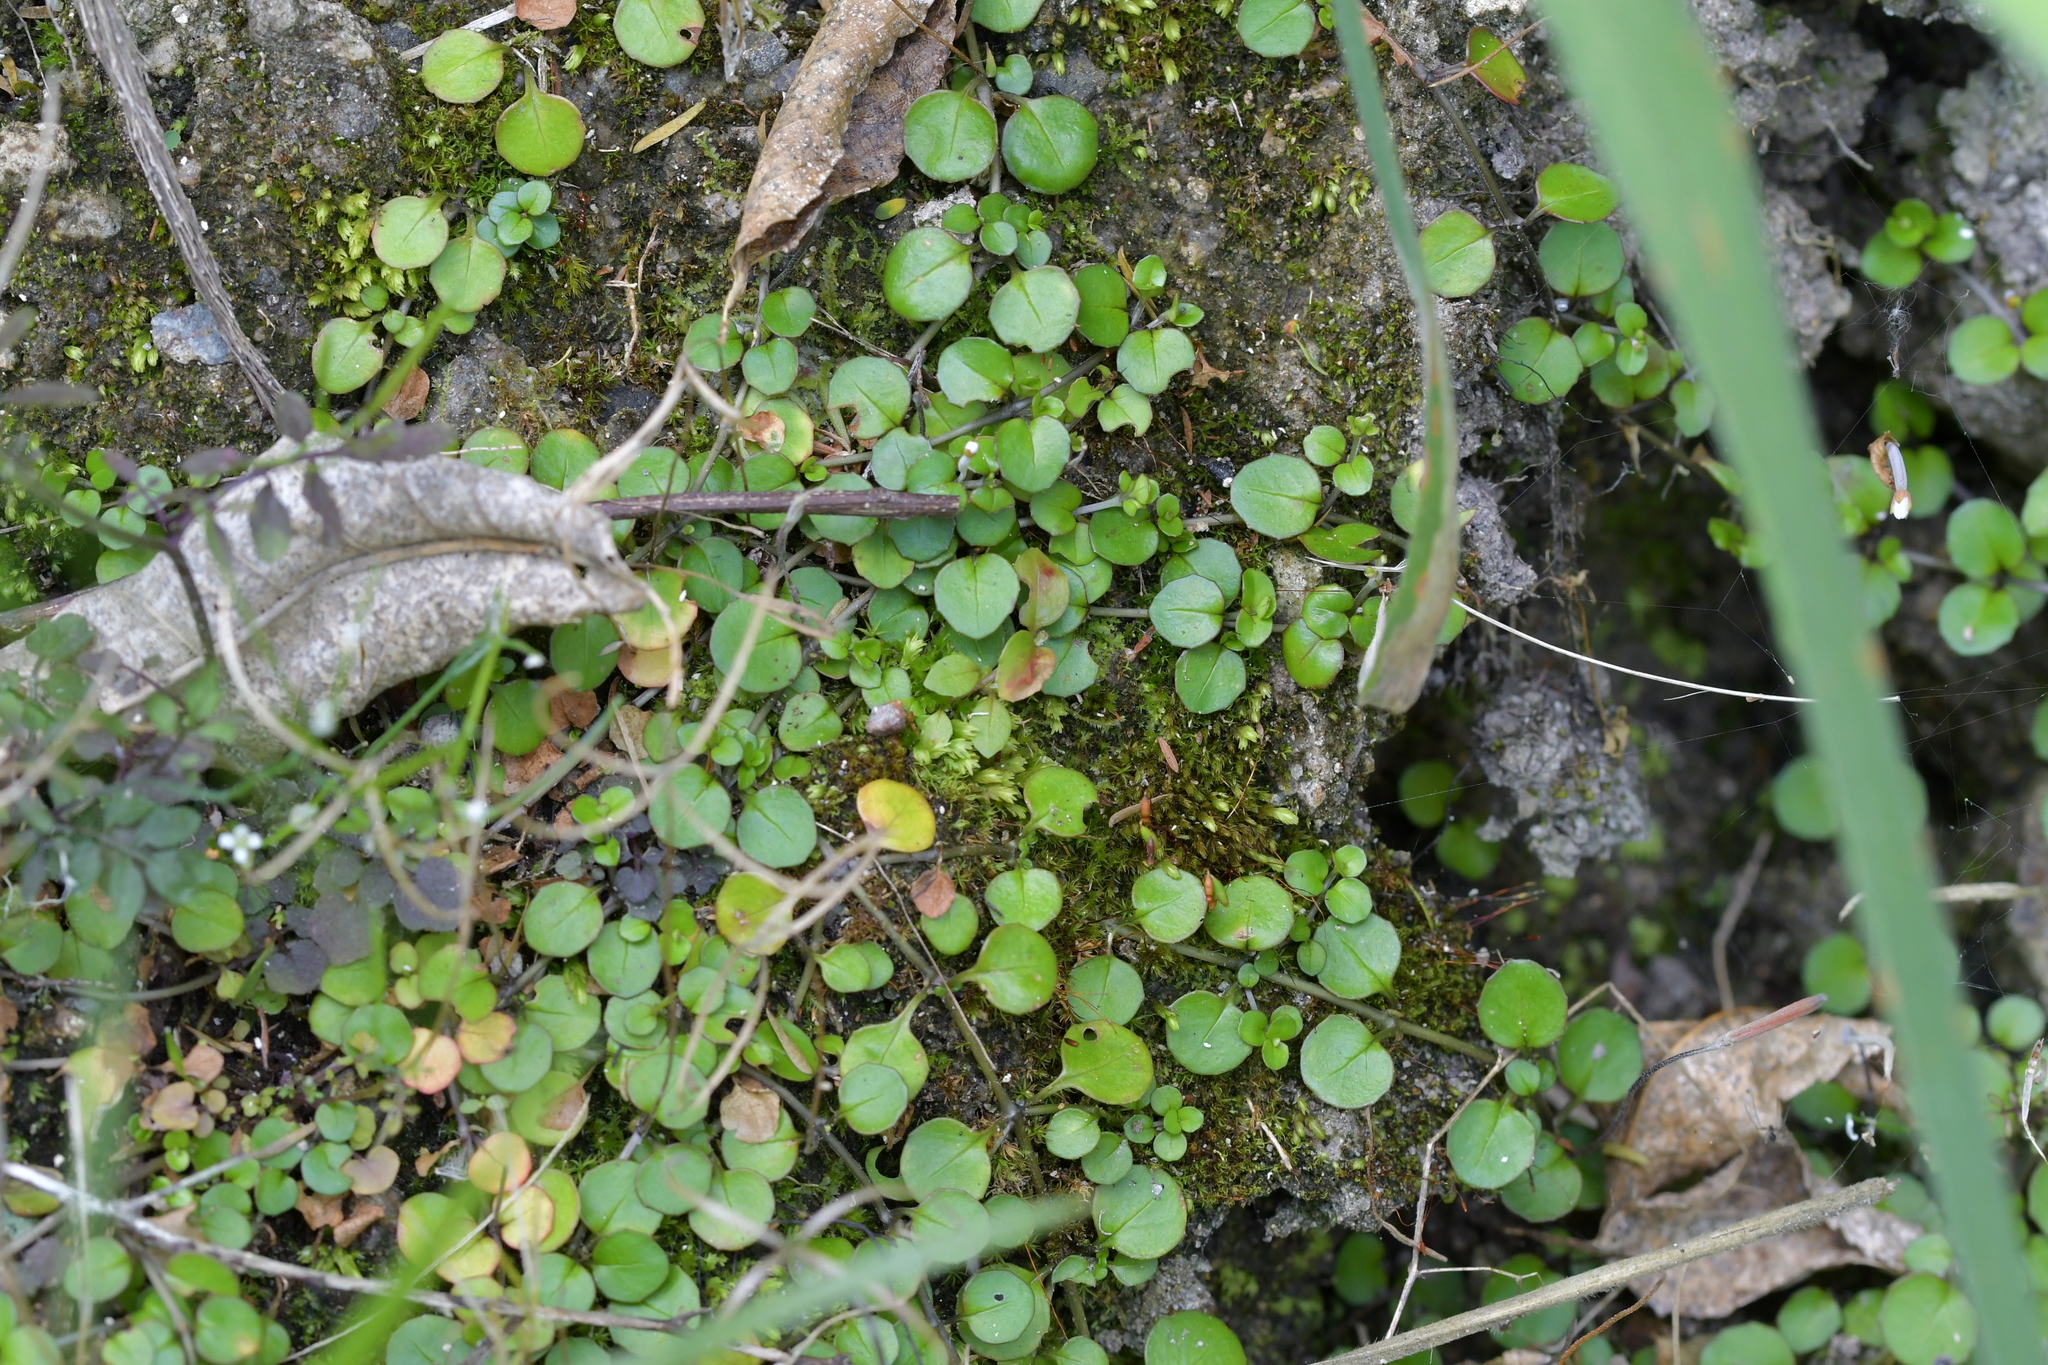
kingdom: Plantae
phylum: Tracheophyta
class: Magnoliopsida
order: Myrtales
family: Onagraceae
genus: Epilobium
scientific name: Epilobium nummularifolium
